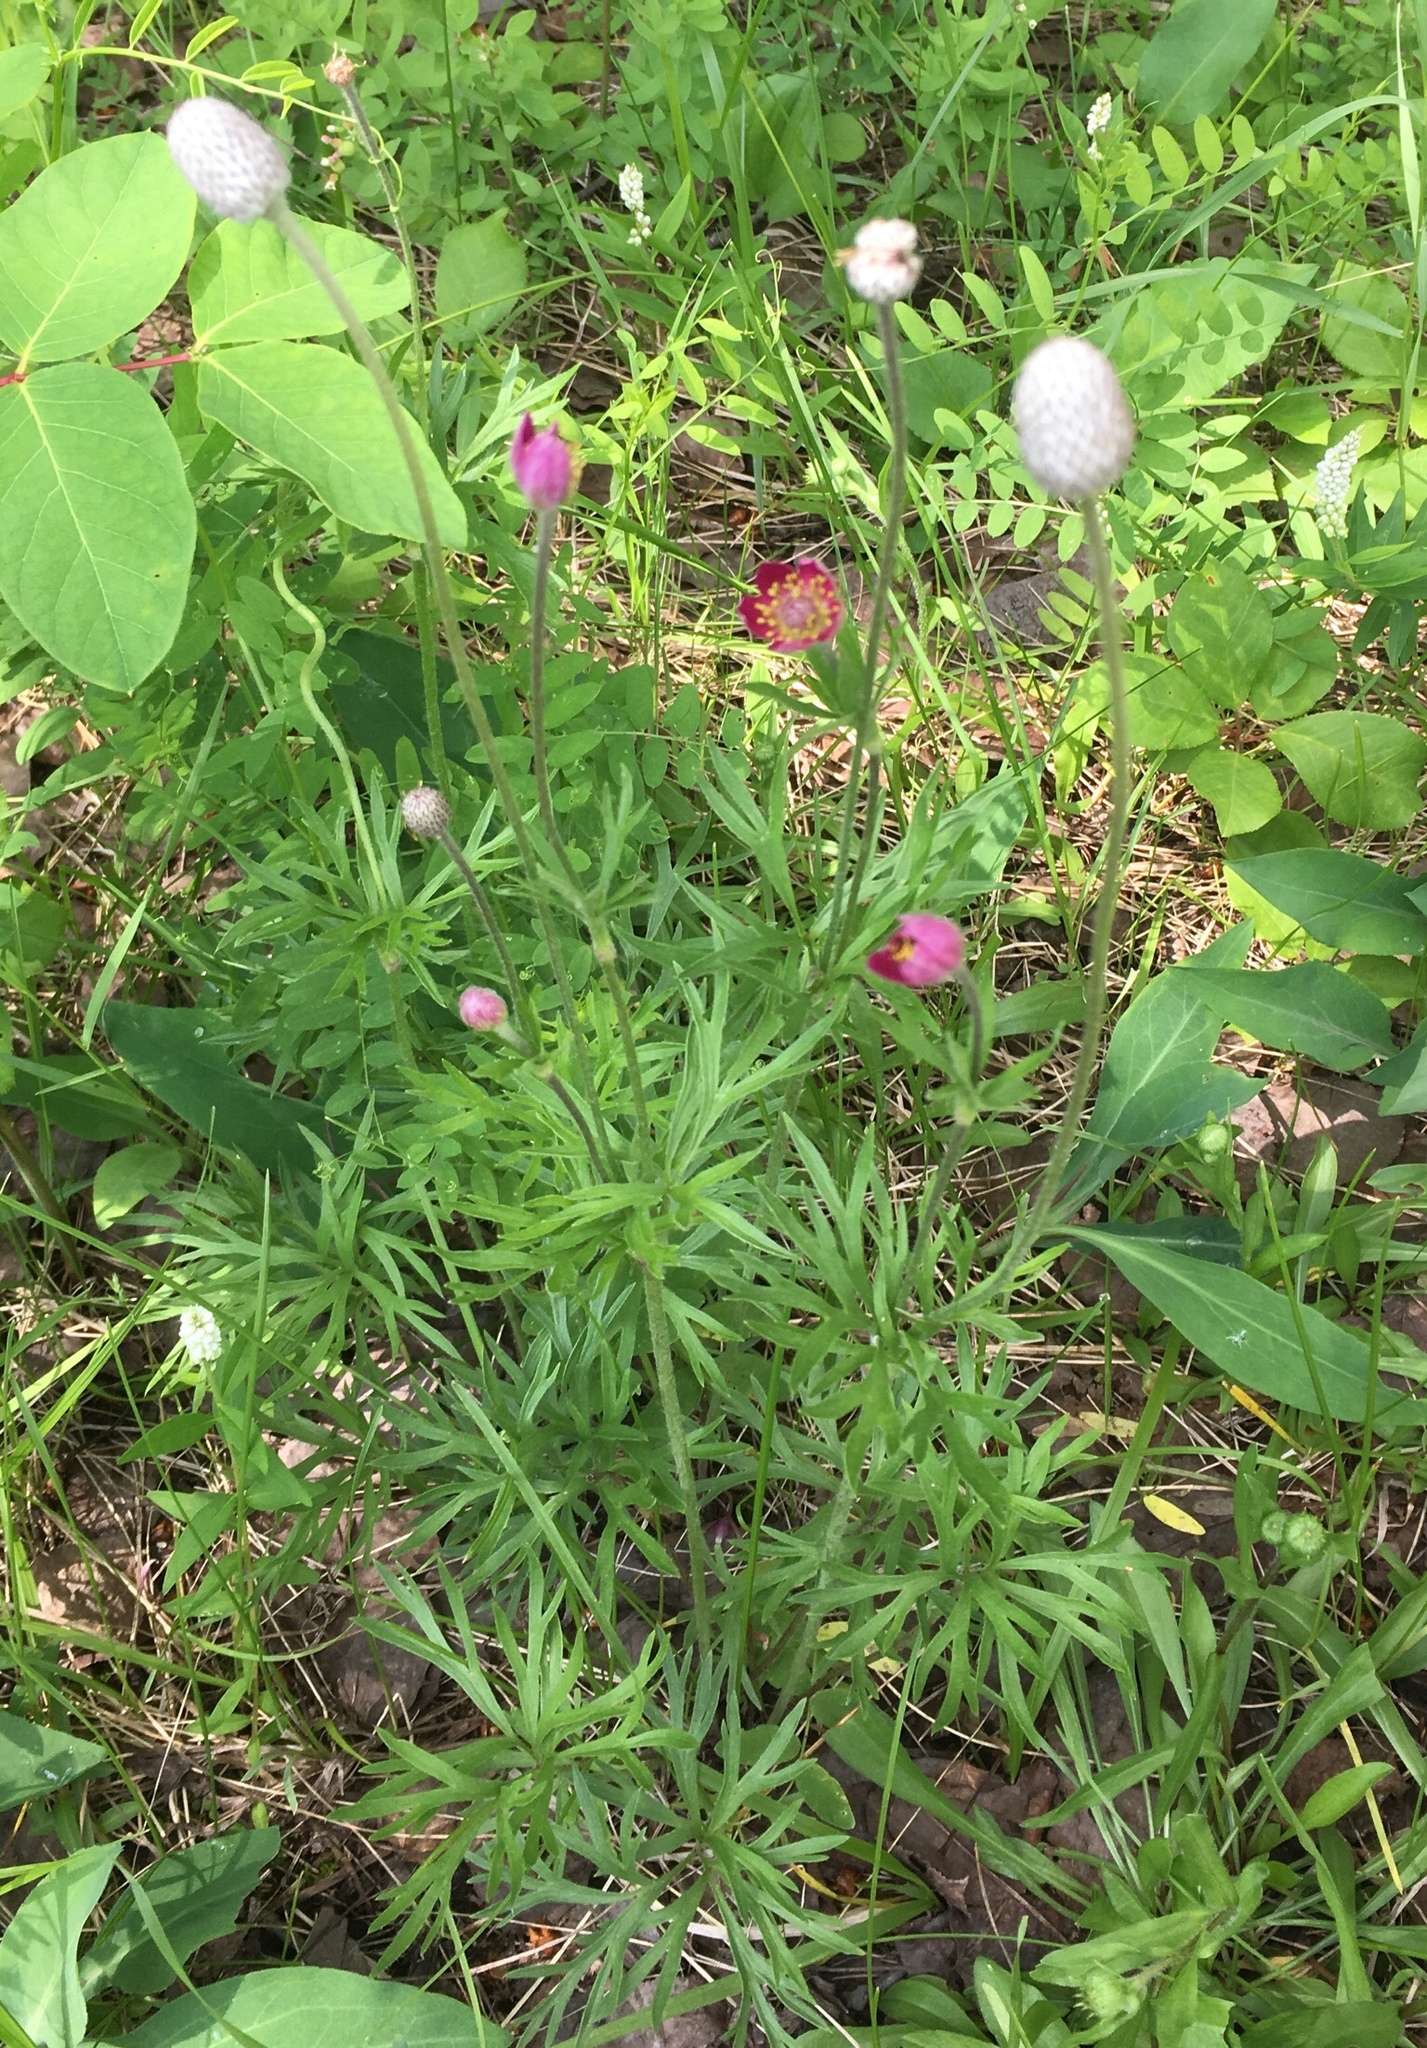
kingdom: Plantae
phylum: Tracheophyta
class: Magnoliopsida
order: Ranunculales
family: Ranunculaceae
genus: Anemone
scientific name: Anemone multifida
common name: Bird's-foot anemone
